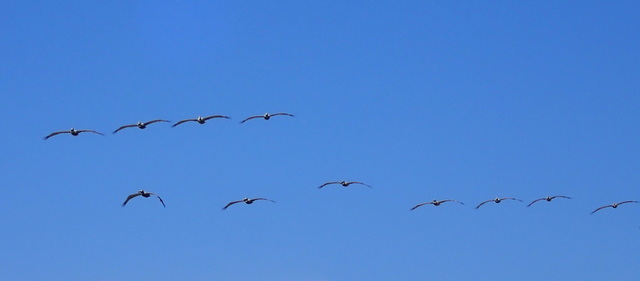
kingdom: Animalia
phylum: Chordata
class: Aves
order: Pelecaniformes
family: Pelecanidae
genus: Pelecanus
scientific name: Pelecanus occidentalis
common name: Brown pelican
